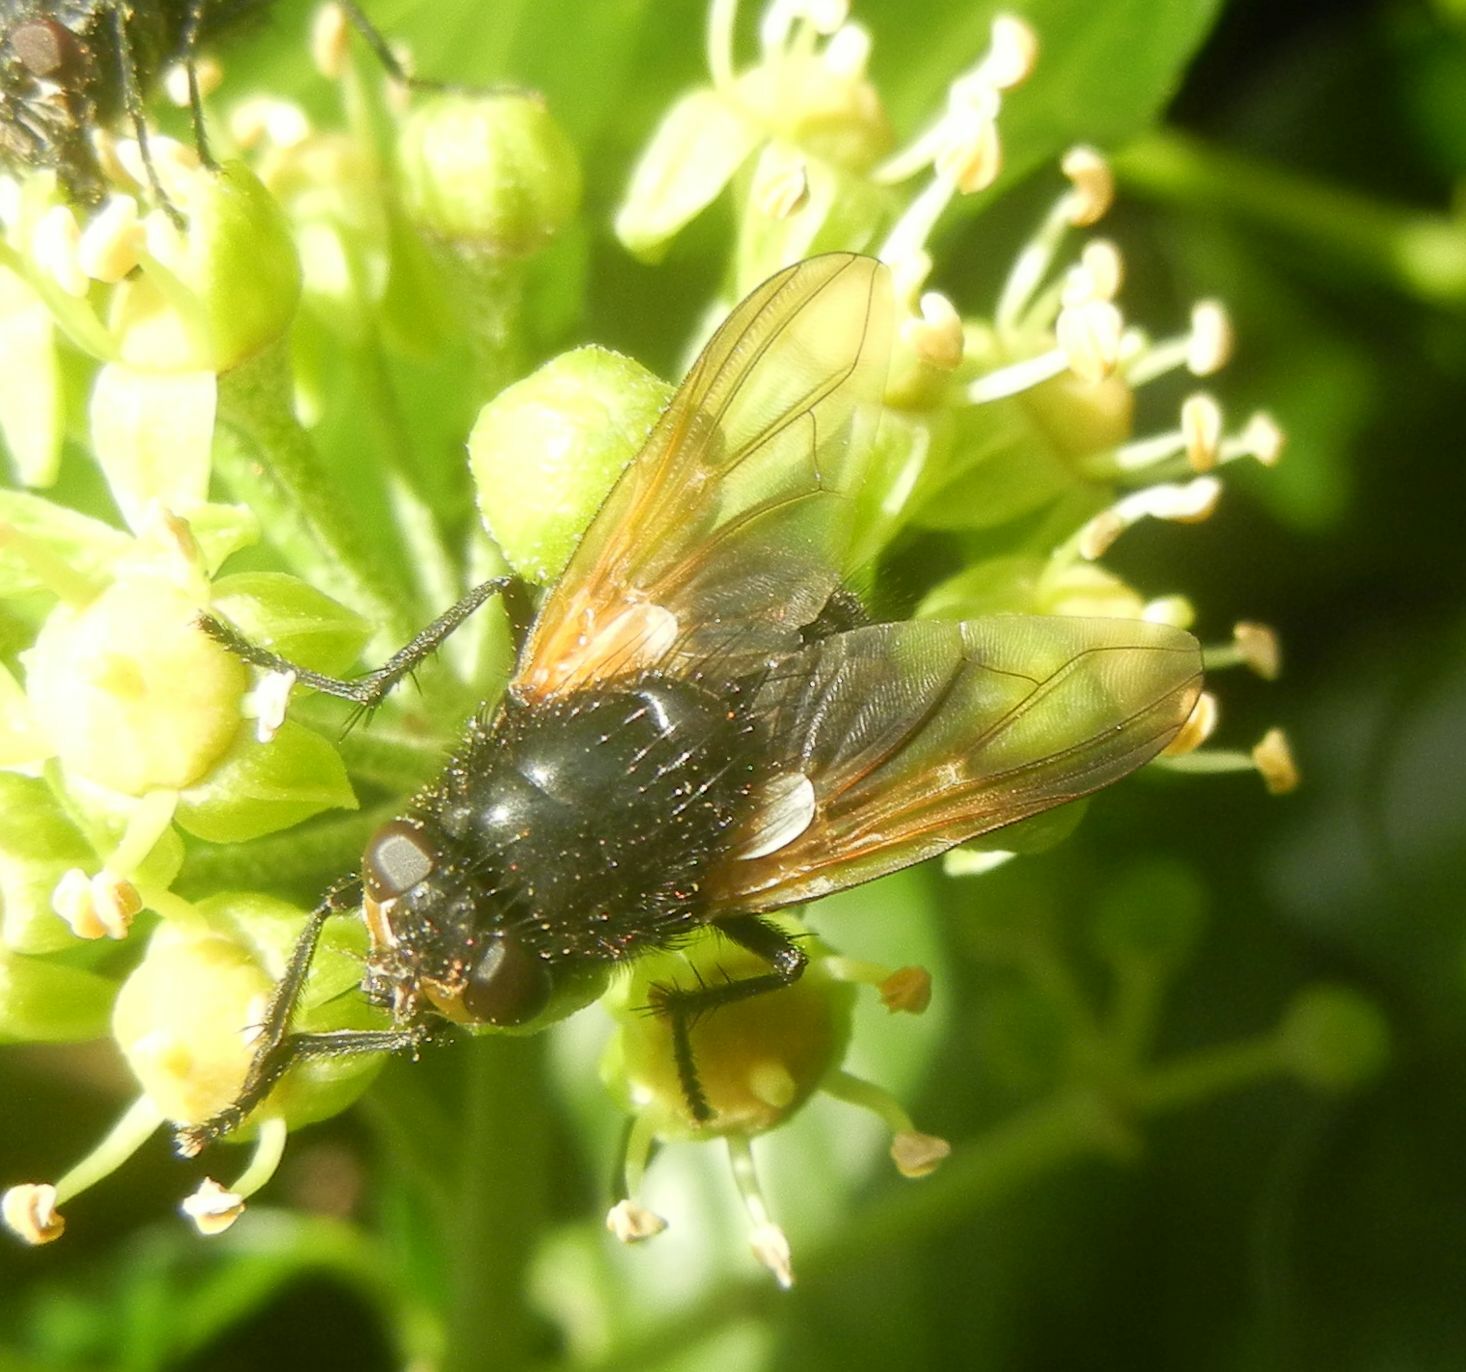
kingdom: Animalia
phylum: Arthropoda
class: Insecta
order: Diptera
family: Muscidae
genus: Mesembrina
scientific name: Mesembrina meridiana
